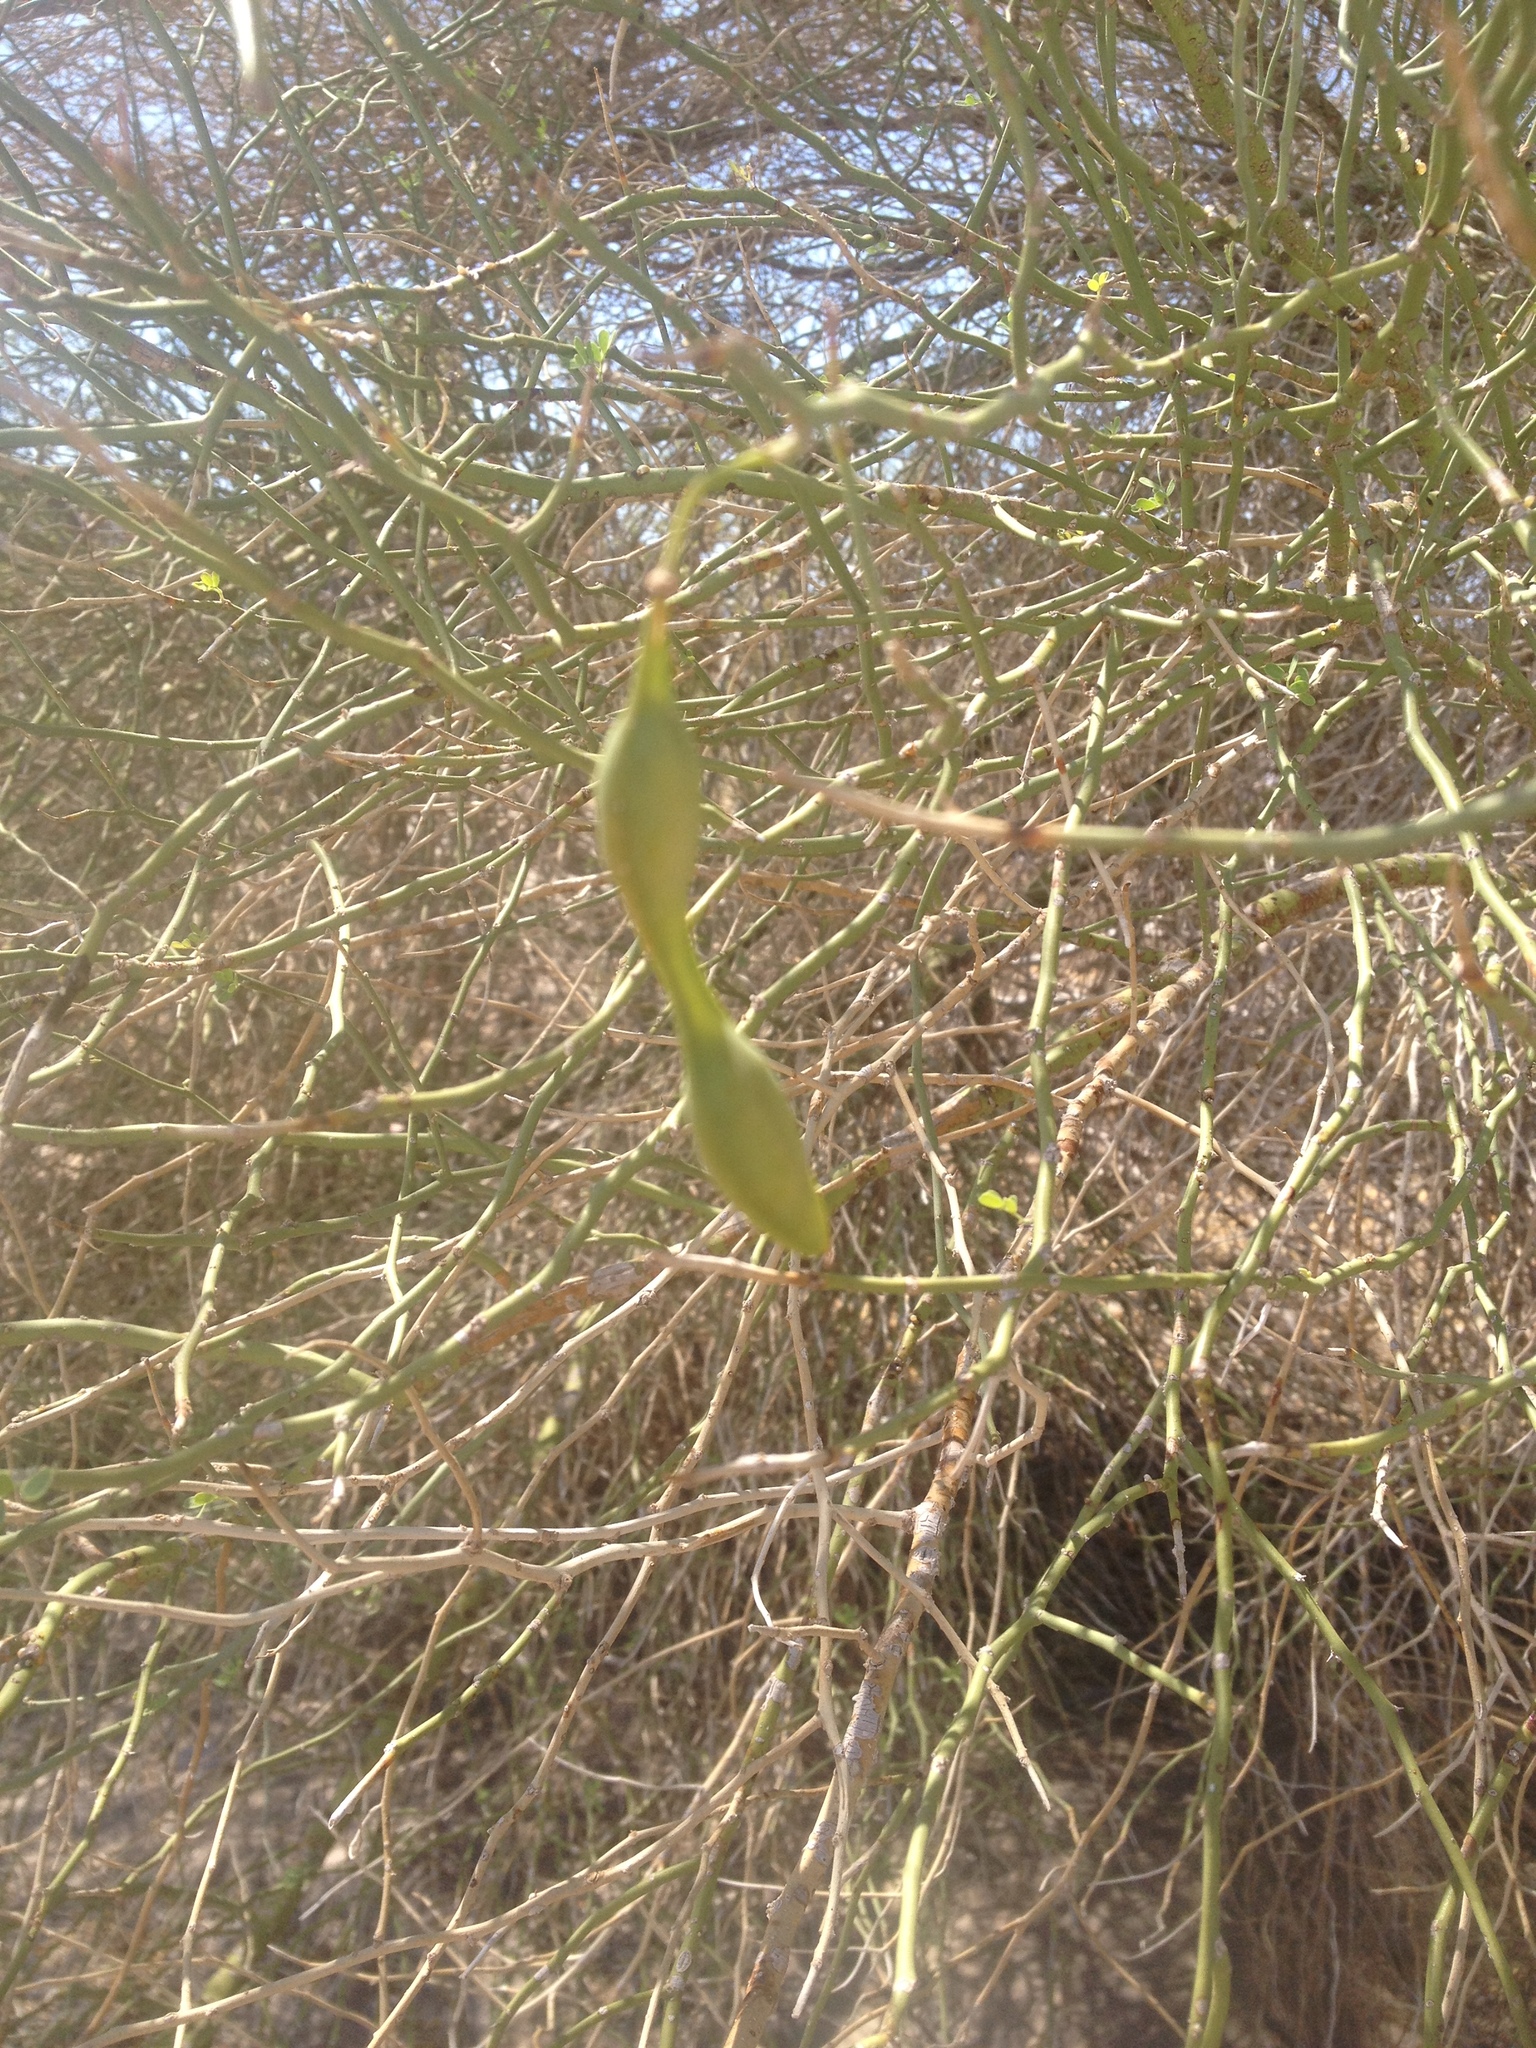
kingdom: Plantae
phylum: Tracheophyta
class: Magnoliopsida
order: Fabales
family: Fabaceae
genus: Parkinsonia
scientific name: Parkinsonia florida
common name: Blue paloverde
